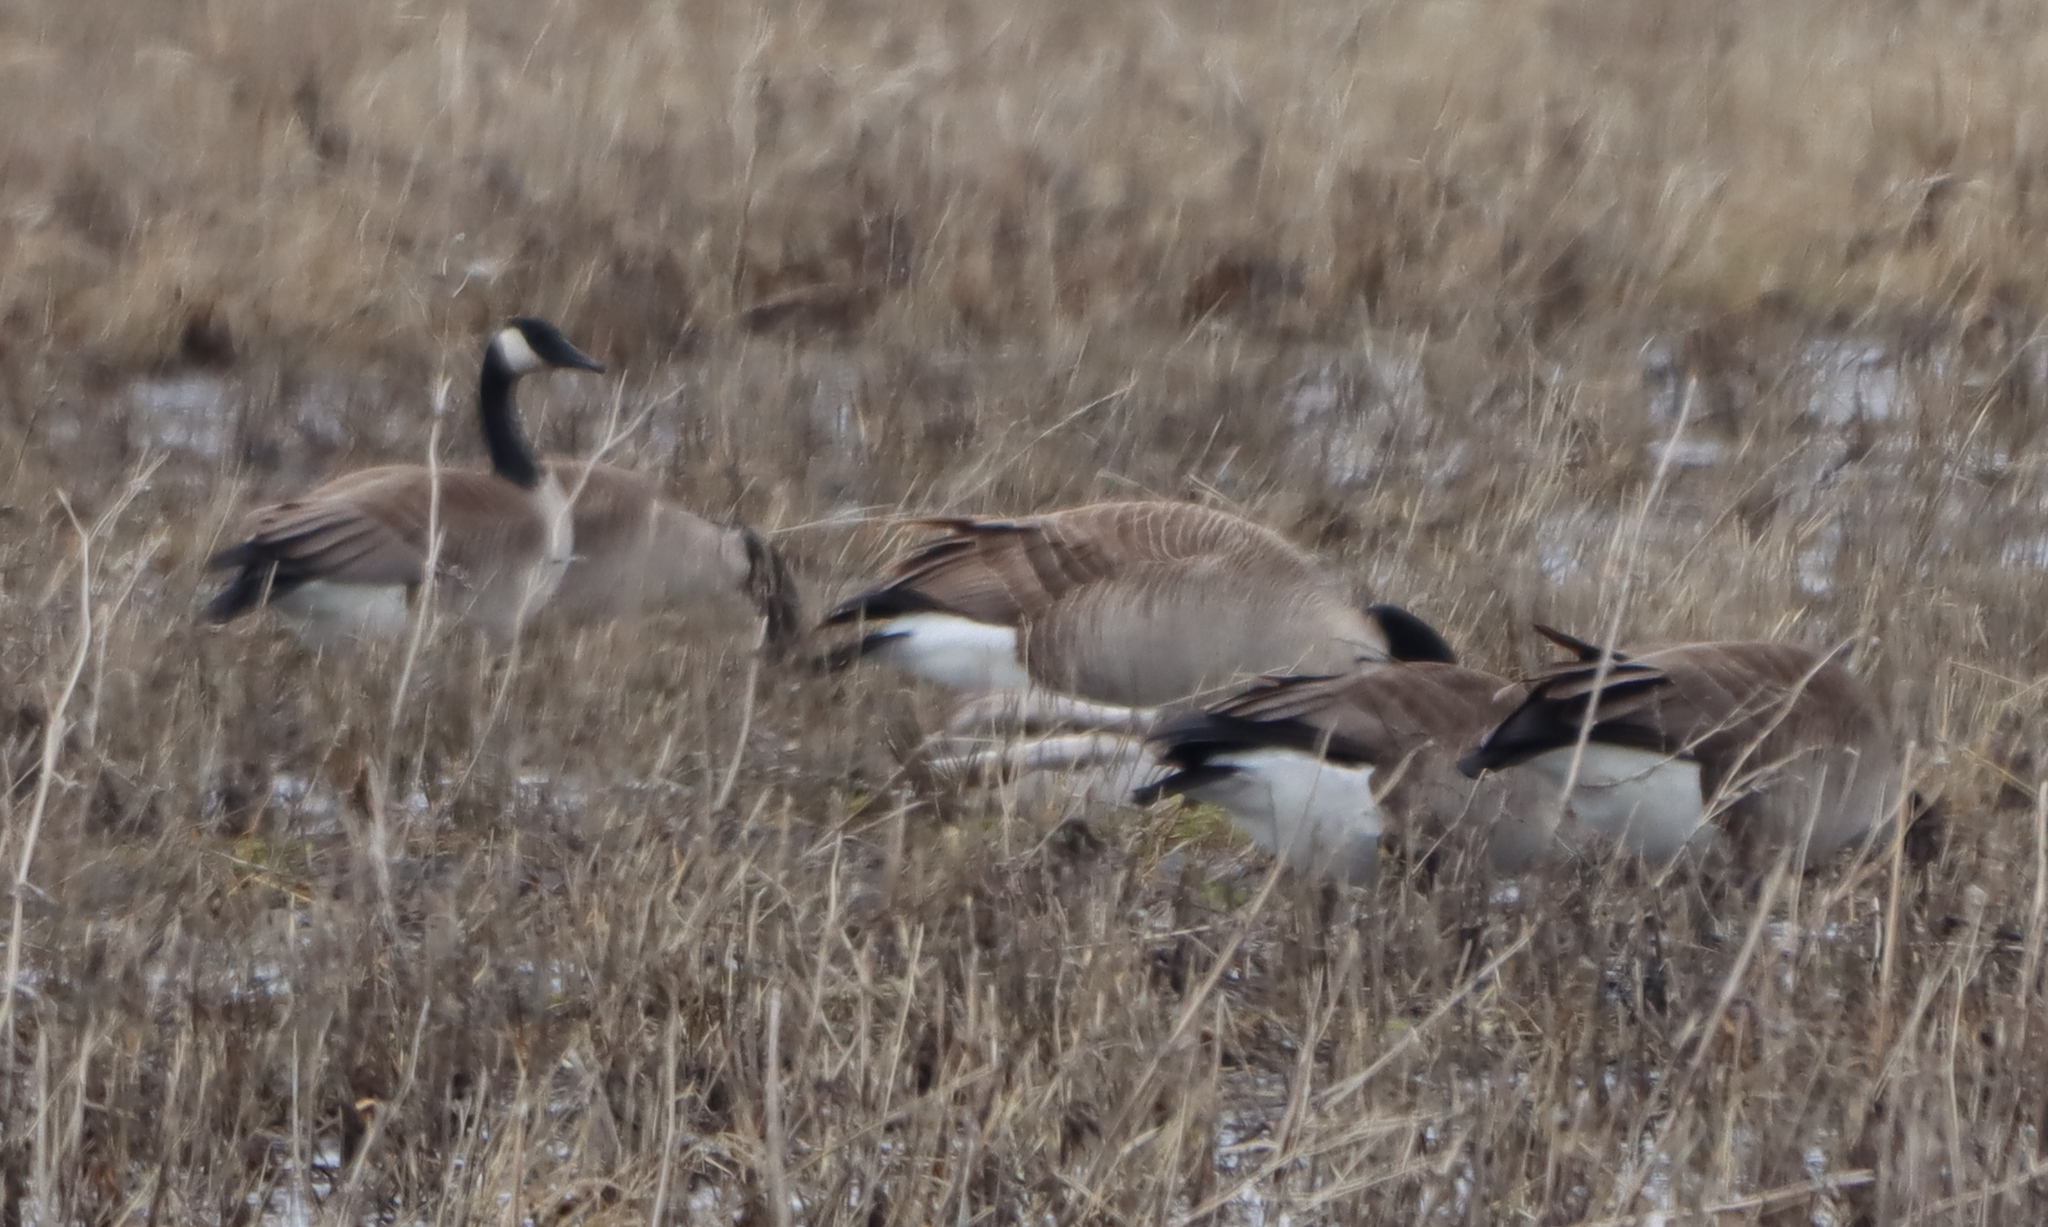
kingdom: Animalia
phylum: Chordata
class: Aves
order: Anseriformes
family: Anatidae
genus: Branta
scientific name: Branta canadensis
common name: Canada goose
